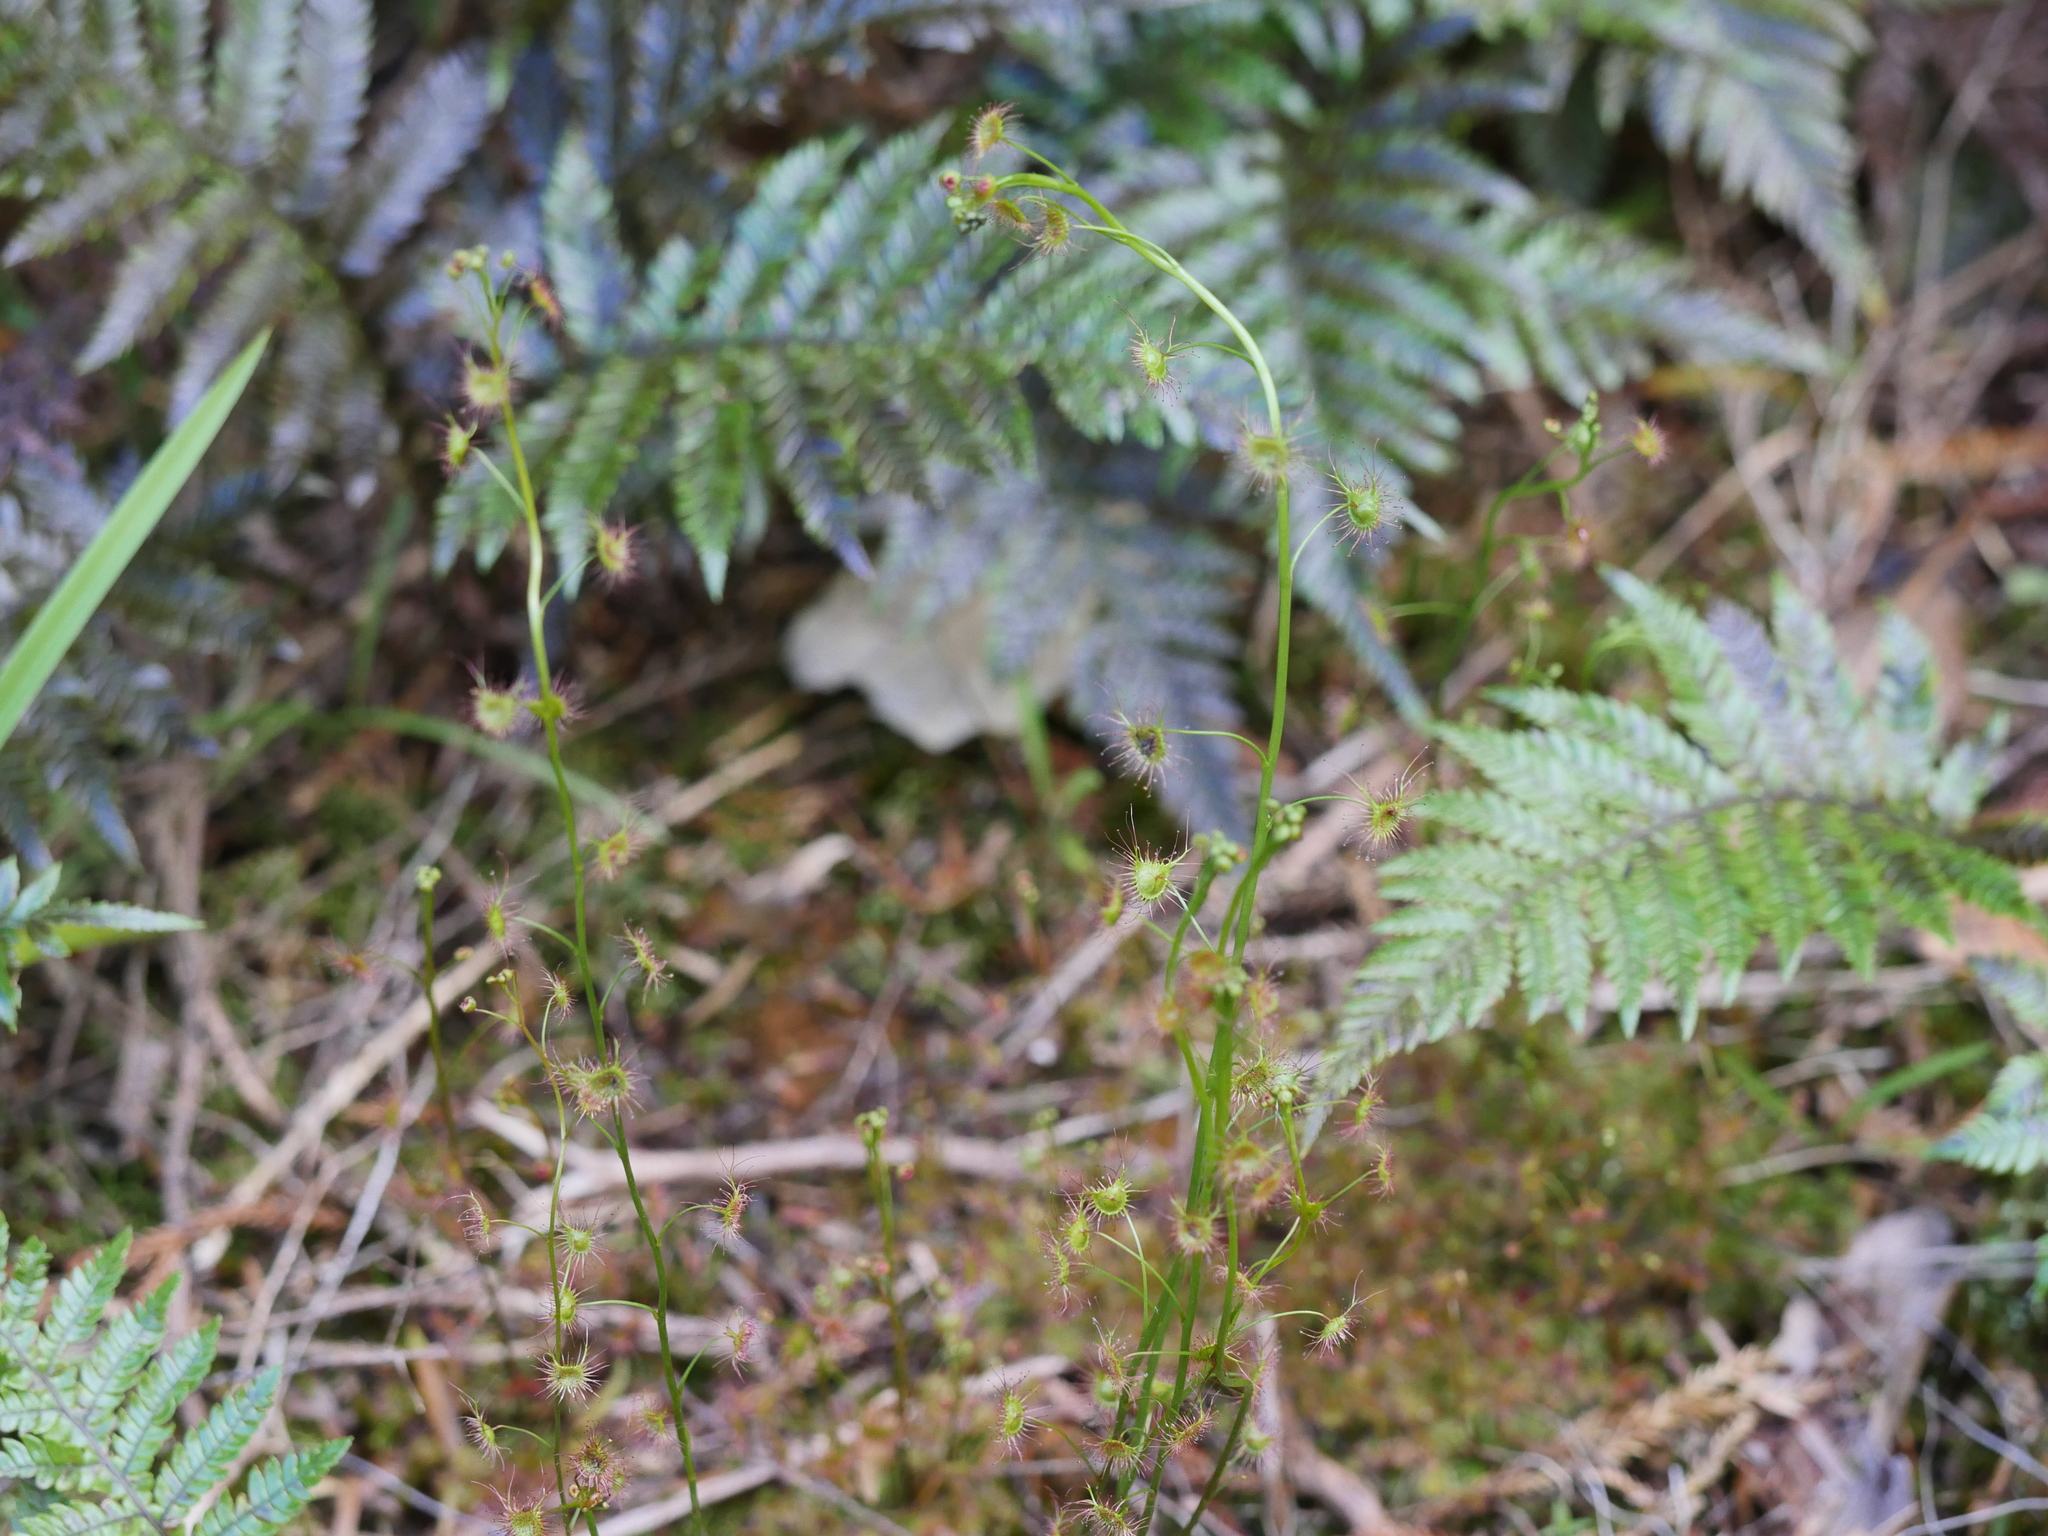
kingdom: Plantae
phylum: Tracheophyta
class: Magnoliopsida
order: Caryophyllales
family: Droseraceae
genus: Drosera
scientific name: Drosera peltata
